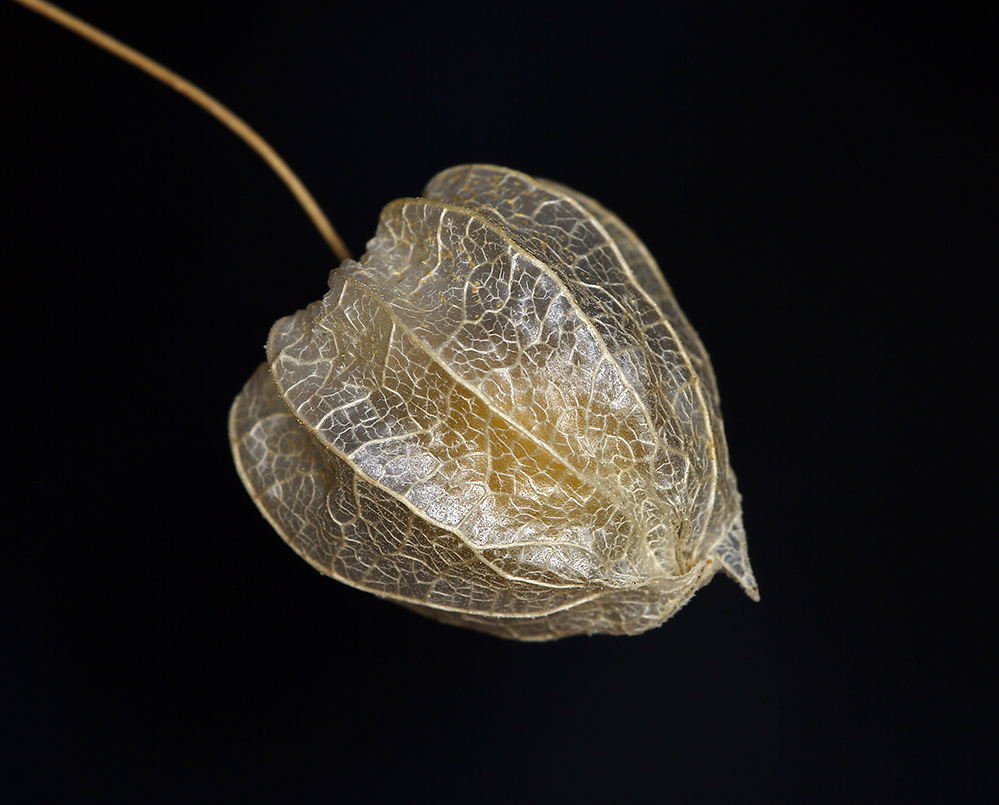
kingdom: Plantae
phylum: Tracheophyta
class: Magnoliopsida
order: Solanales
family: Solanaceae
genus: Physalis
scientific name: Physalis crassifolia
